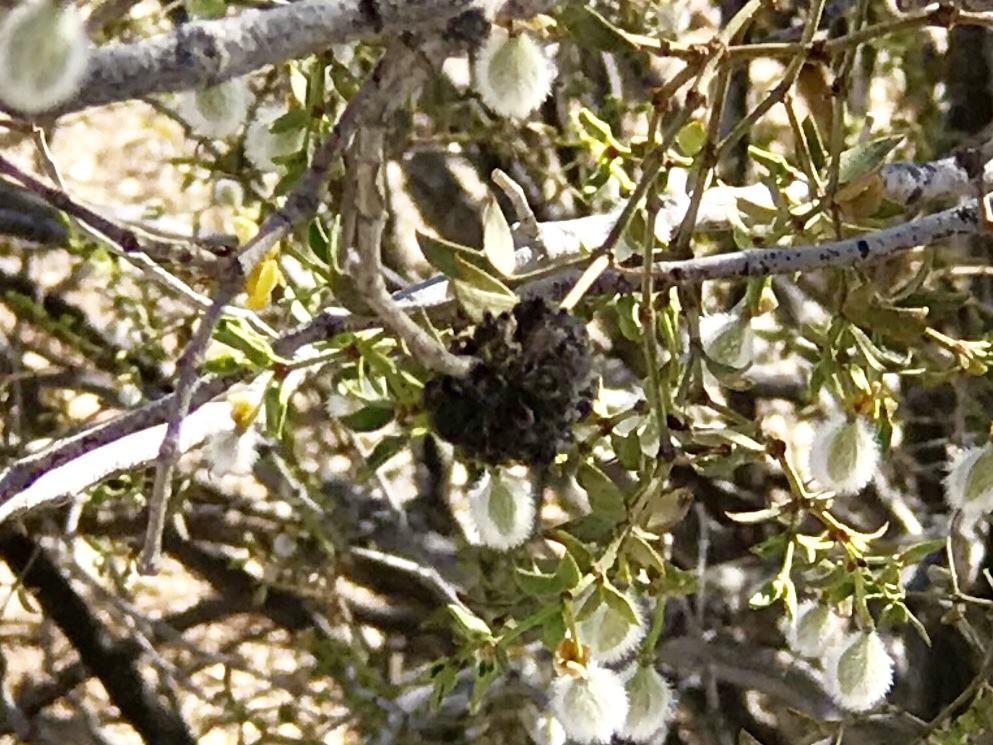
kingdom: Animalia
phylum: Arthropoda
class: Insecta
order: Diptera
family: Cecidomyiidae
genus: Asphondylia
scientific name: Asphondylia auripila
